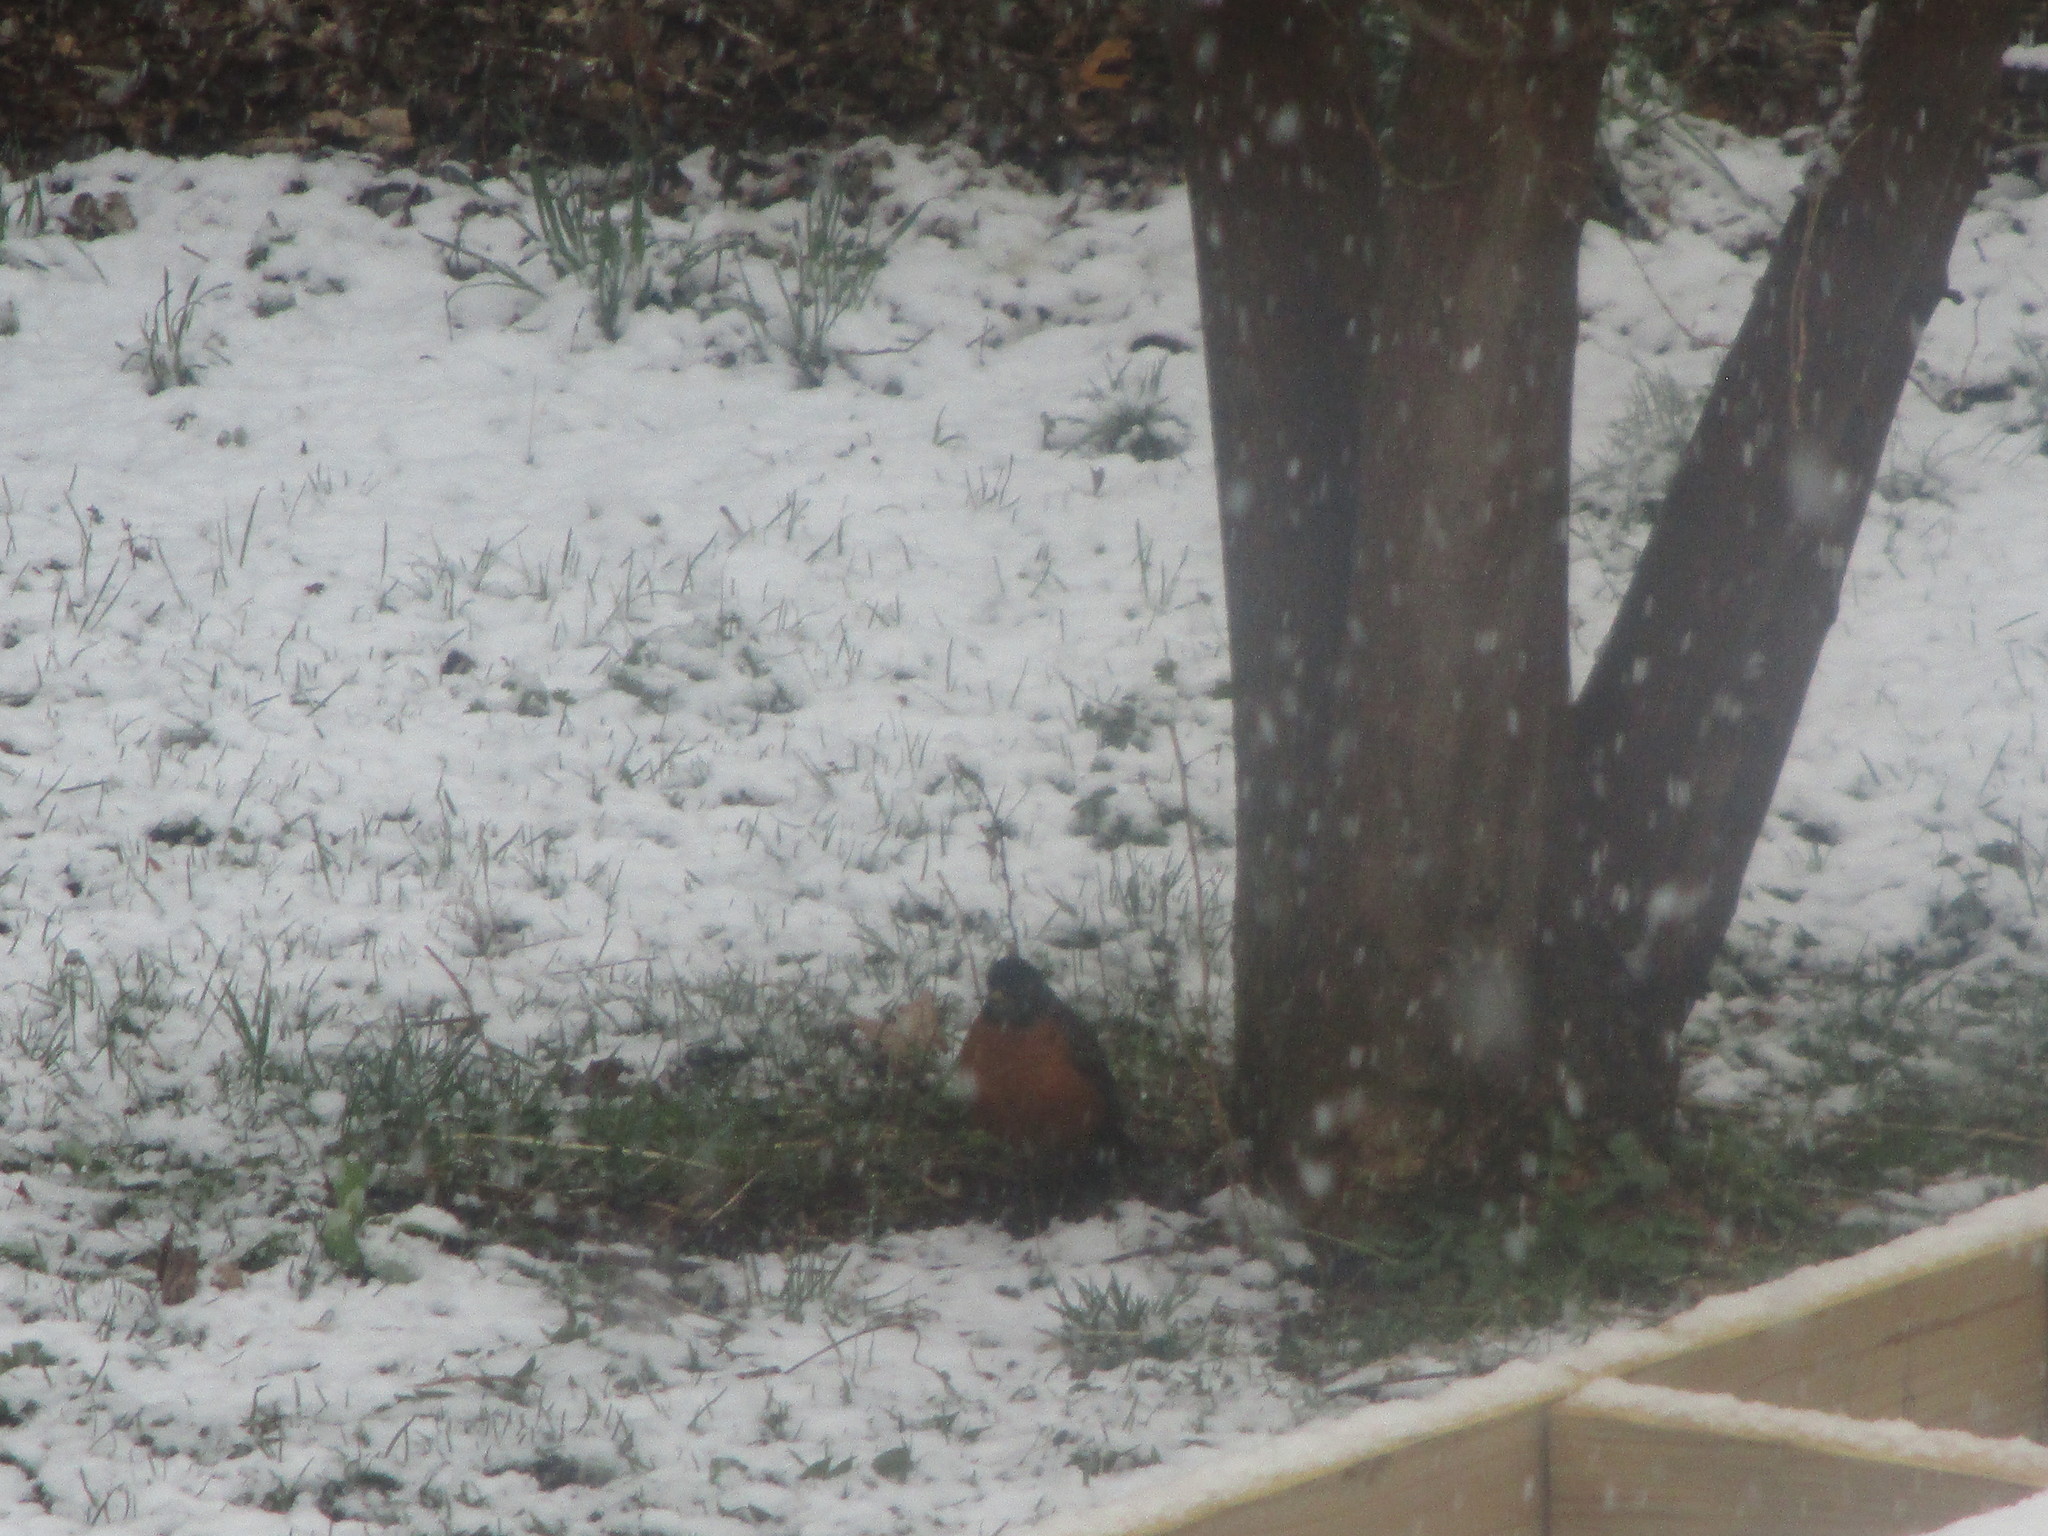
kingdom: Animalia
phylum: Chordata
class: Aves
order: Passeriformes
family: Turdidae
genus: Turdus
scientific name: Turdus migratorius
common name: American robin
